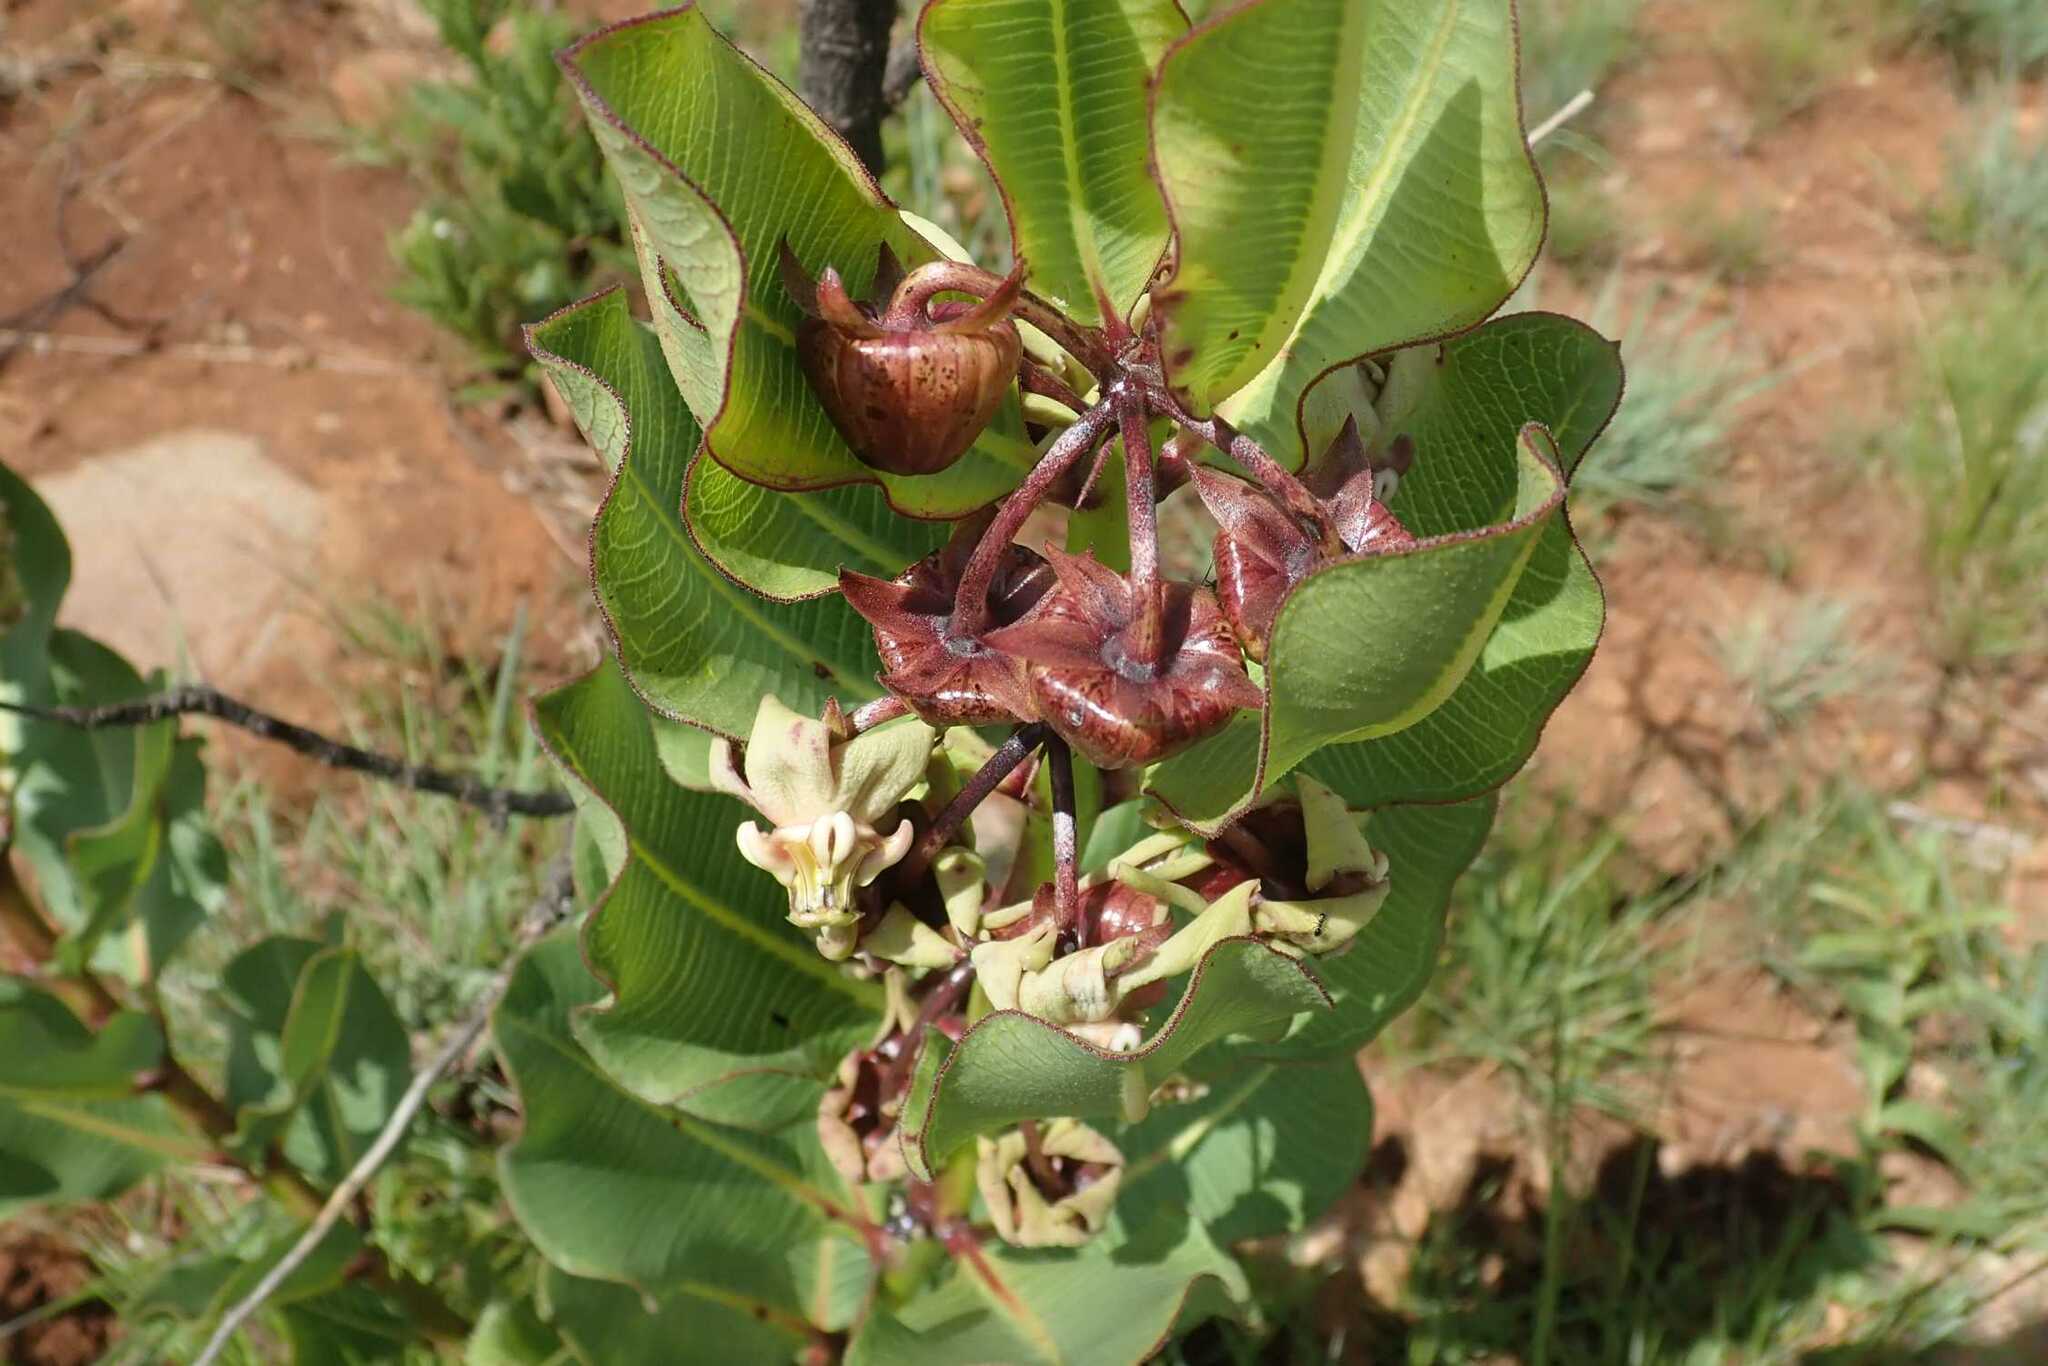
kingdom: Plantae
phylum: Tracheophyta
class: Magnoliopsida
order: Gentianales
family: Apocynaceae
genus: Pachycarpus
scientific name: Pachycarpus asperifolius
